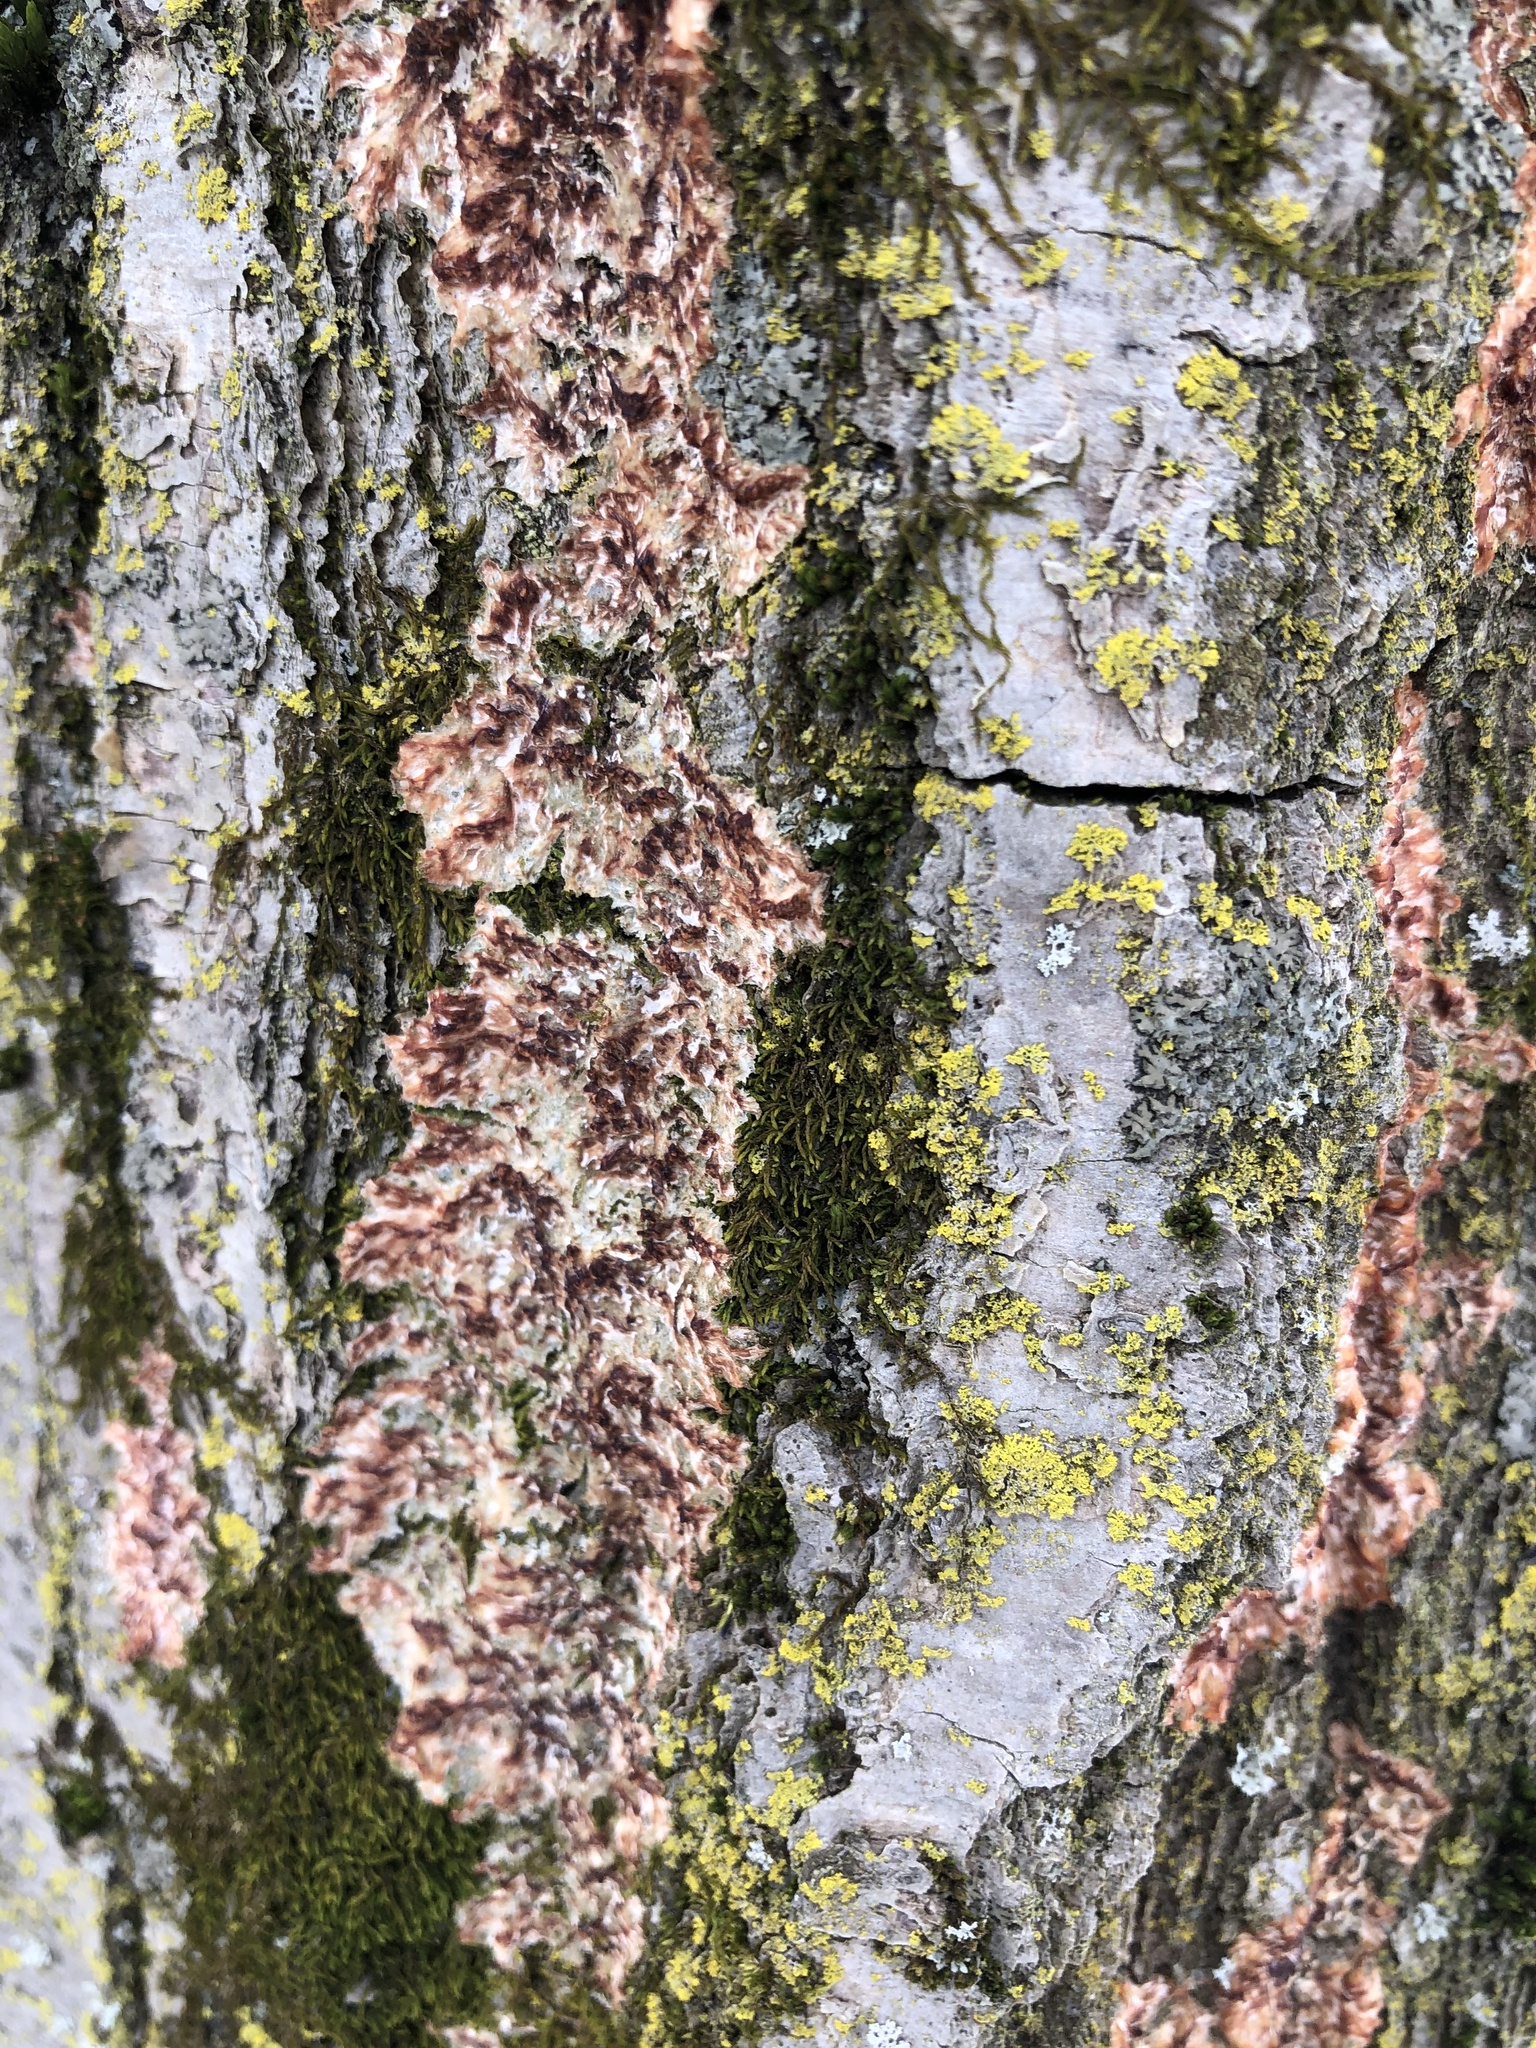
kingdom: Fungi
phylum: Basidiomycota
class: Agaricomycetes
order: Polyporales
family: Meruliaceae
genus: Phlebia
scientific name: Phlebia radiata
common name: Wrinkled crust
